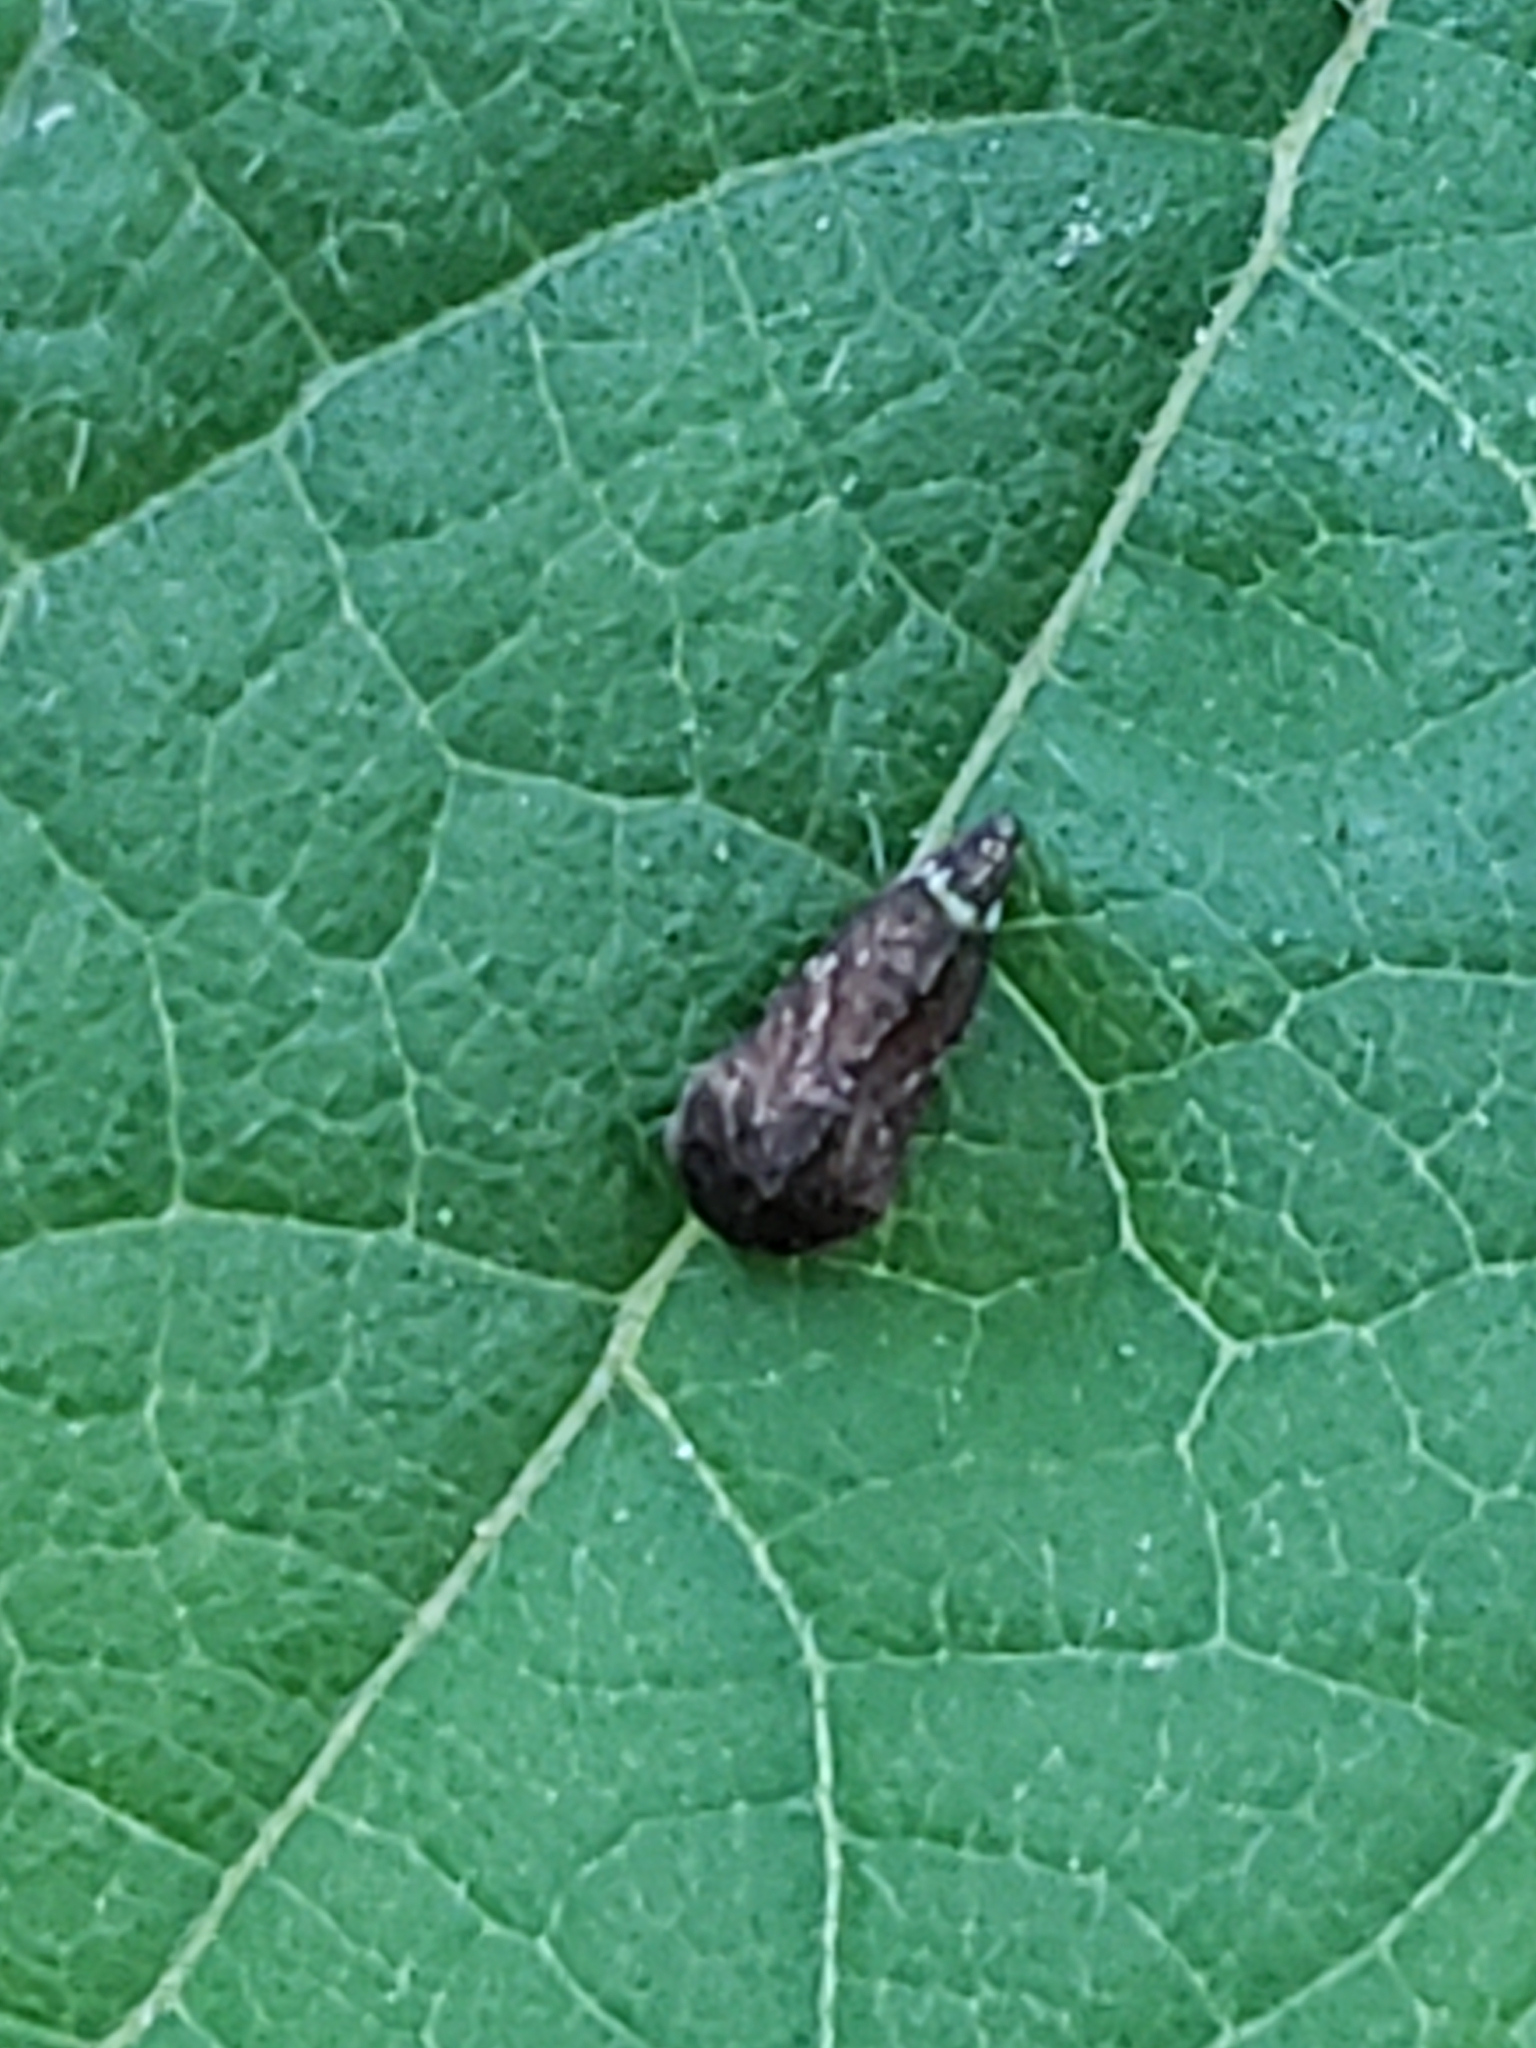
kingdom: Animalia
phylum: Arthropoda
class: Insecta
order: Hemiptera
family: Membracidae
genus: Publilia
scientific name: Publilia concava
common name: Aster treehopper
